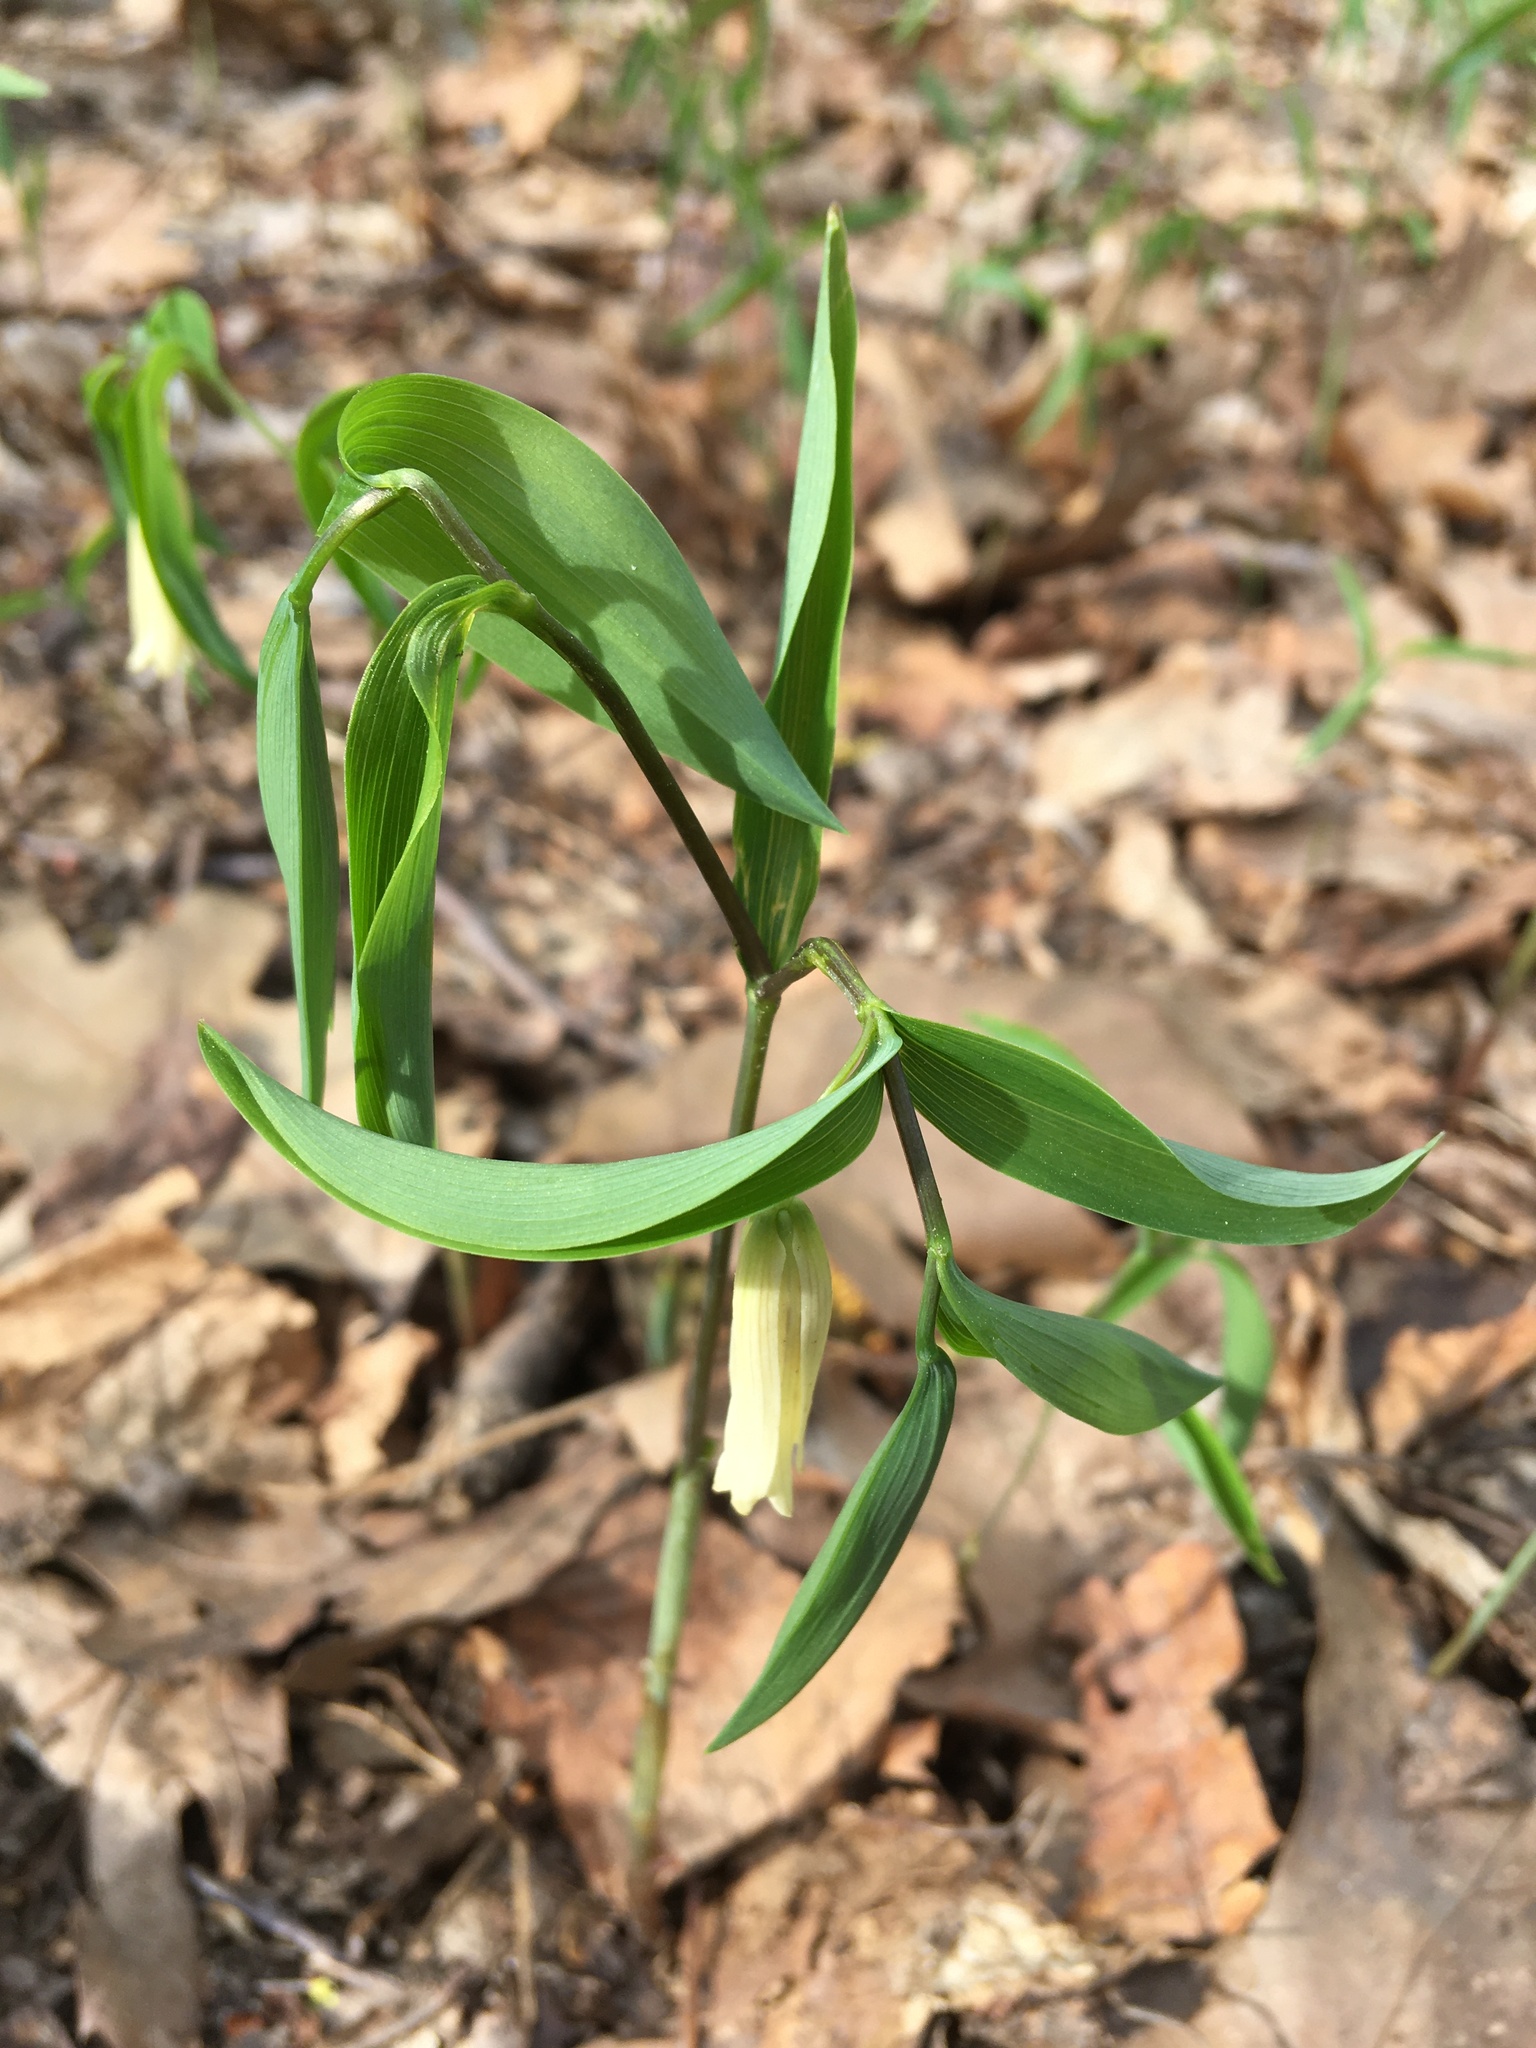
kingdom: Plantae
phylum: Tracheophyta
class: Liliopsida
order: Liliales
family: Colchicaceae
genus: Uvularia
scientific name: Uvularia sessilifolia
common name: Straw-lily
